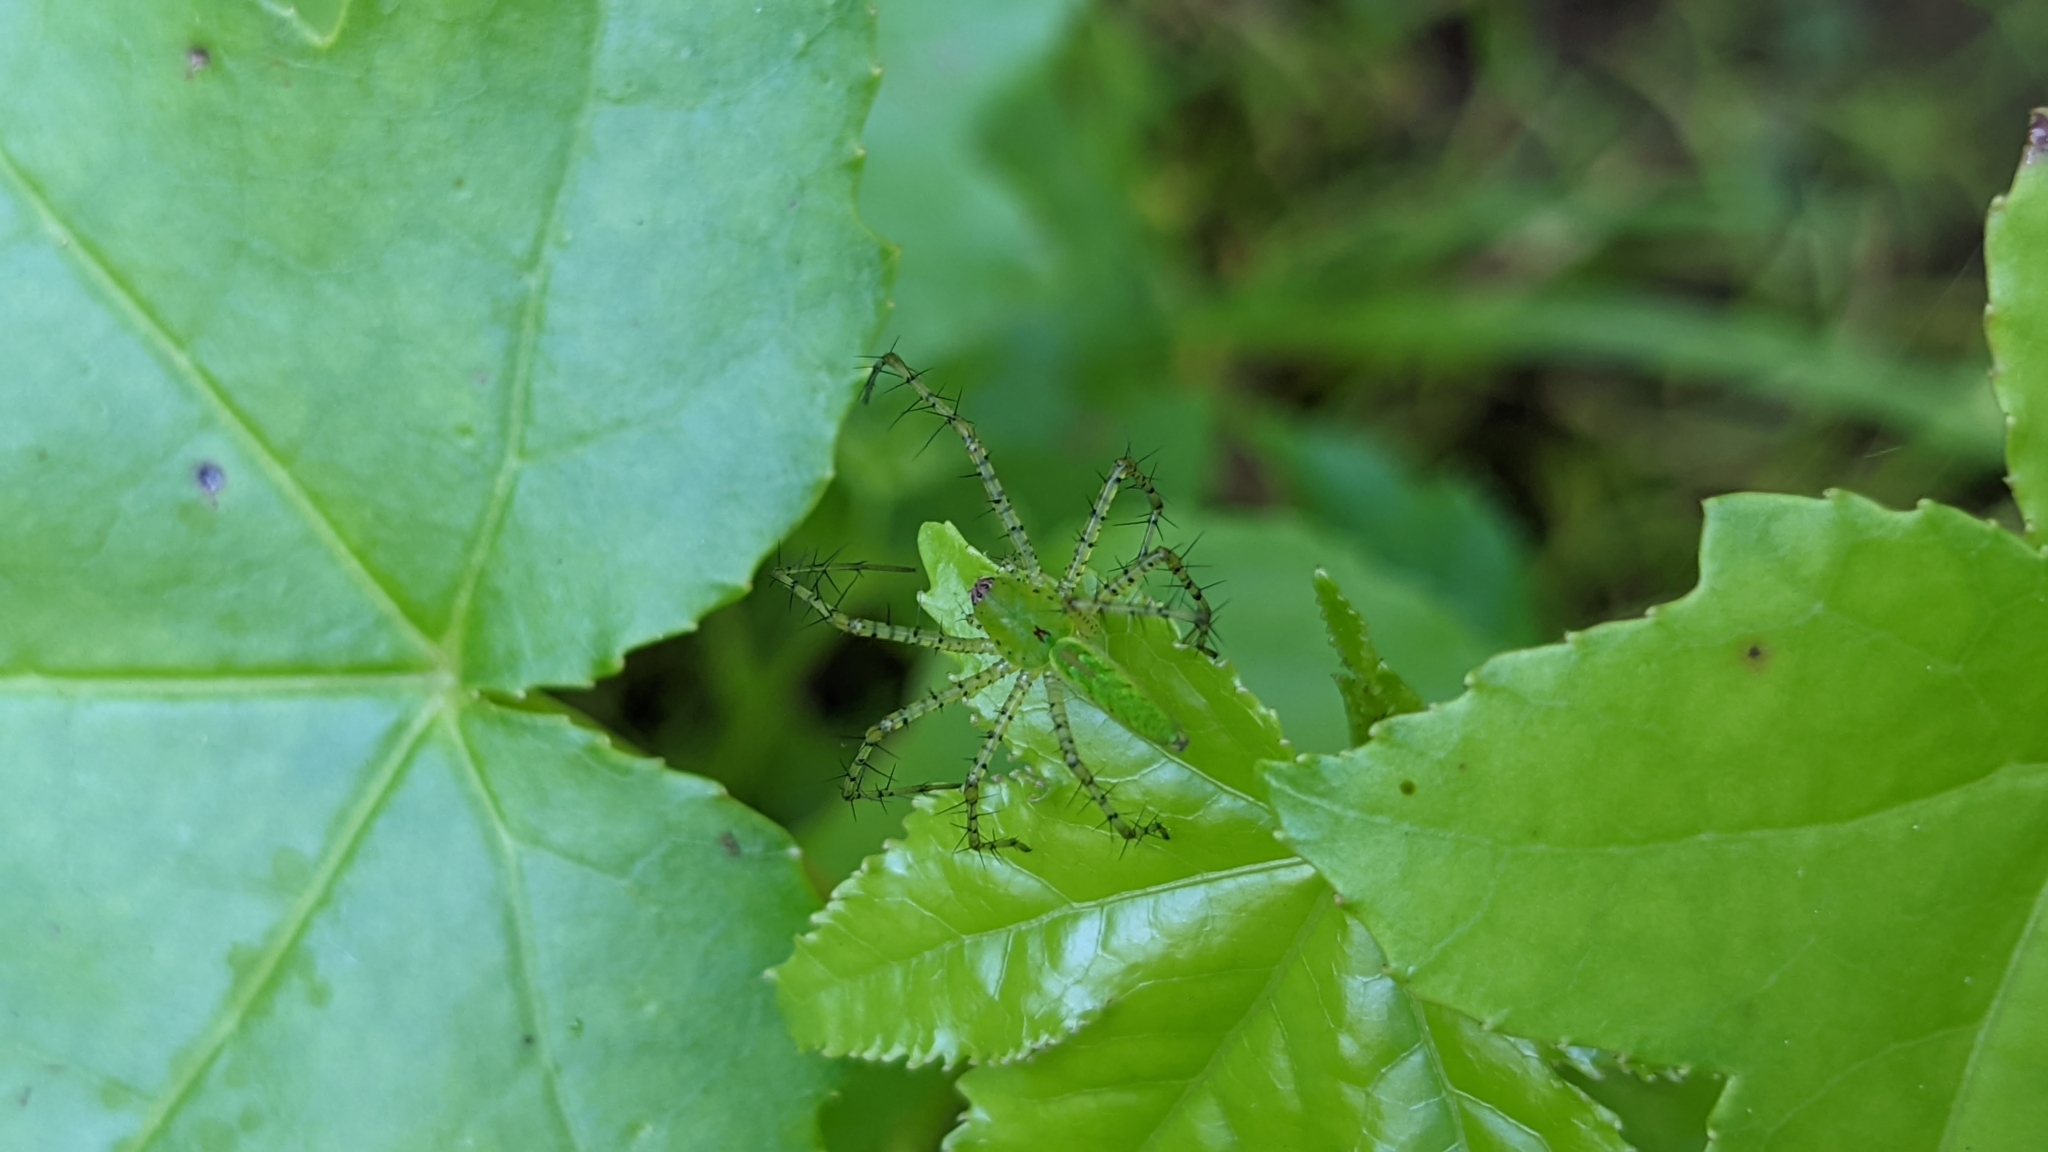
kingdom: Animalia
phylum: Arthropoda
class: Arachnida
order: Araneae
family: Oxyopidae
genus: Peucetia
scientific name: Peucetia viridans
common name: Lynx spiders
